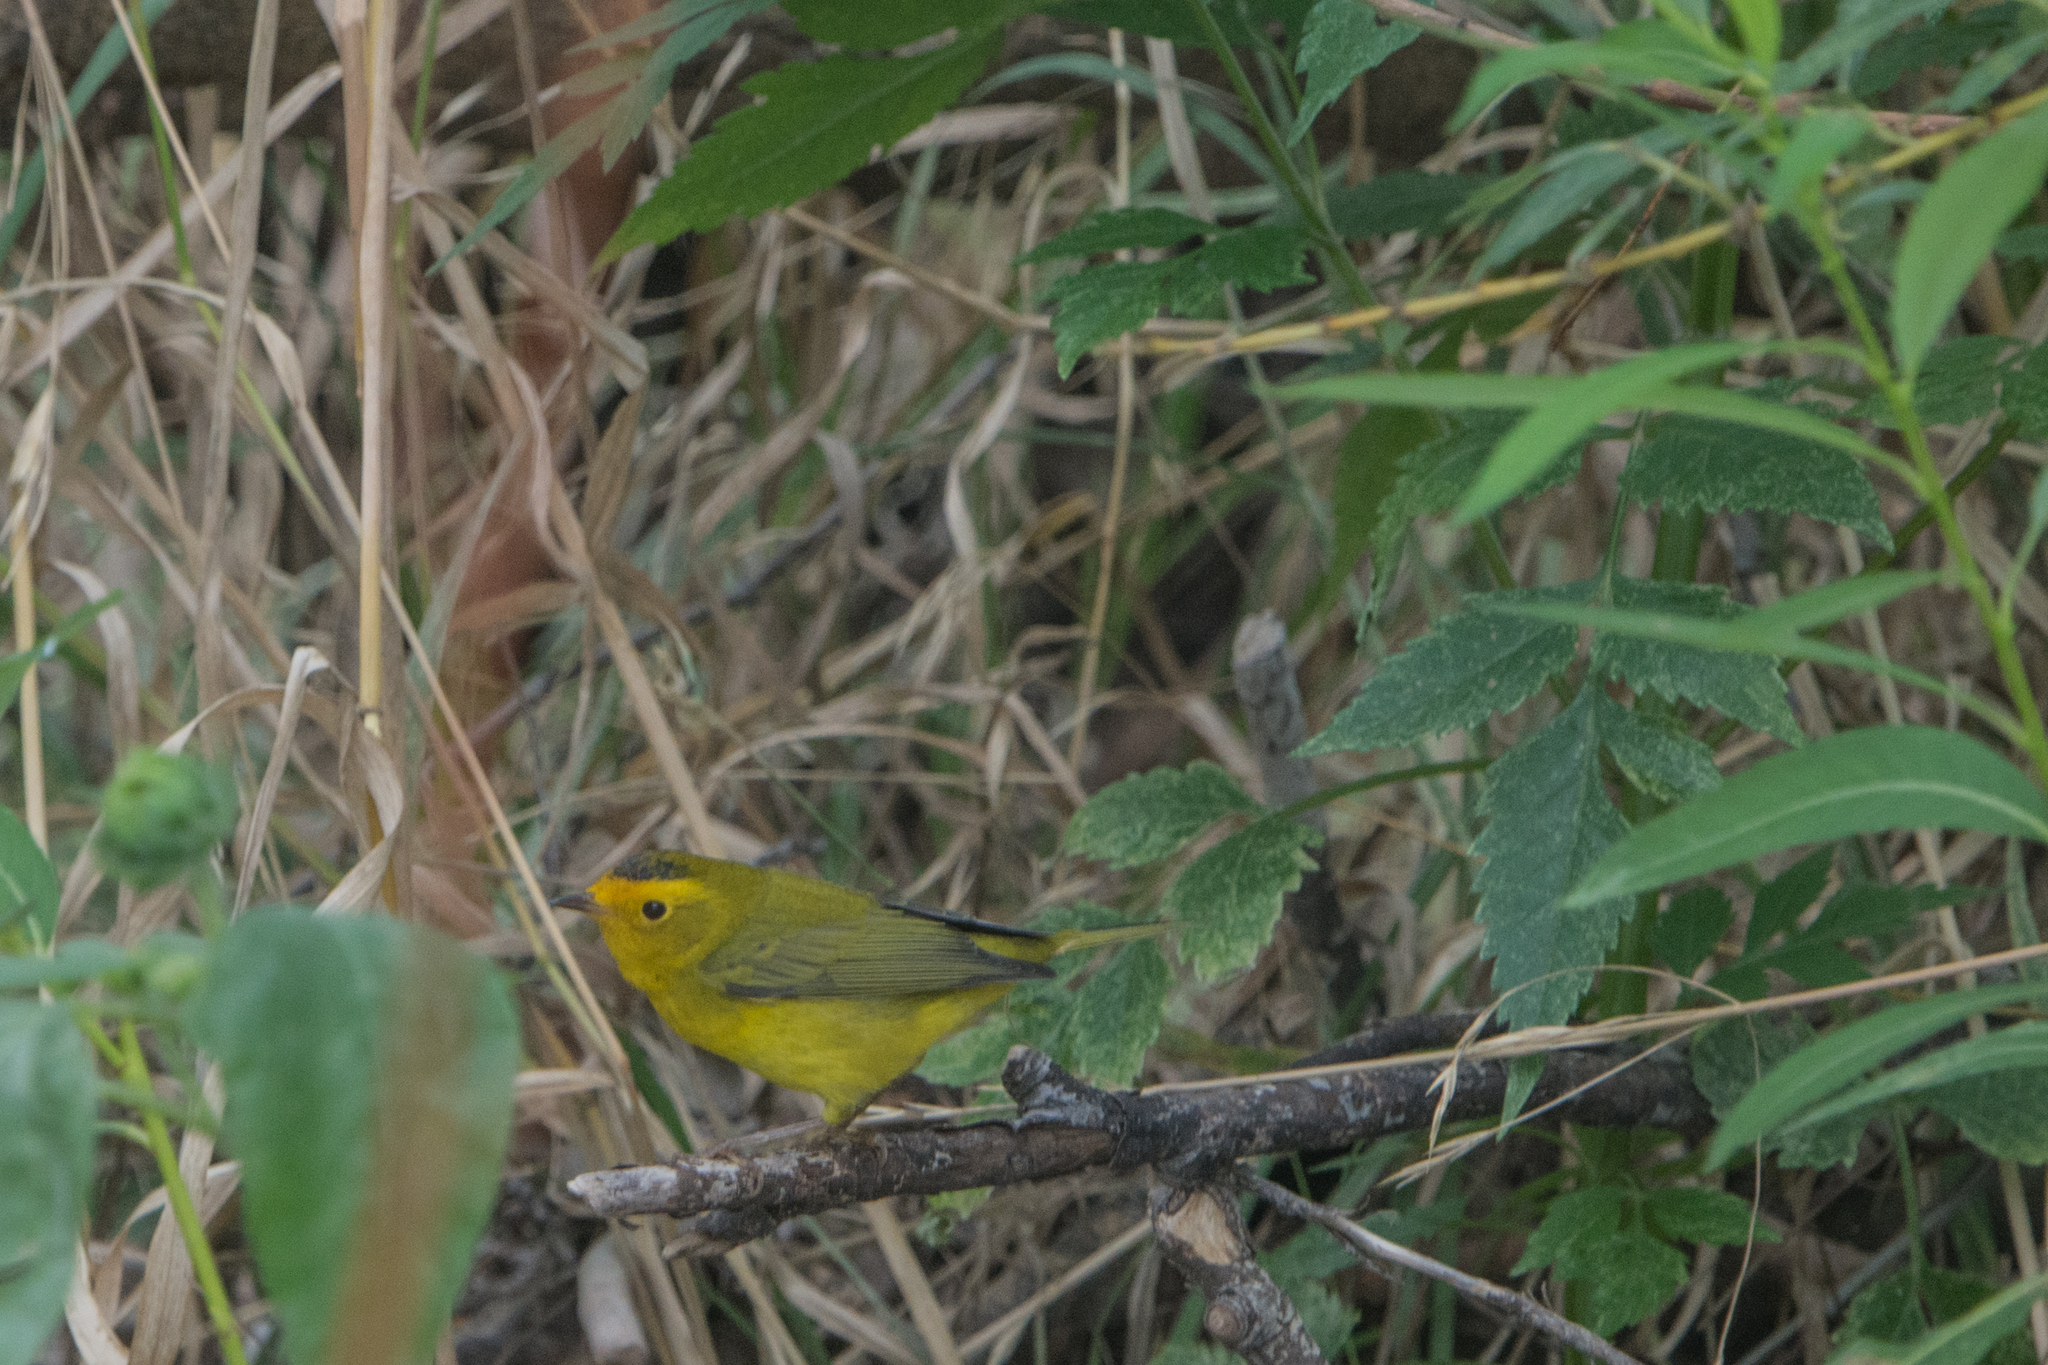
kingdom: Animalia
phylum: Chordata
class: Aves
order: Passeriformes
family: Parulidae
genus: Cardellina
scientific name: Cardellina pusilla
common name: Wilson's warbler
